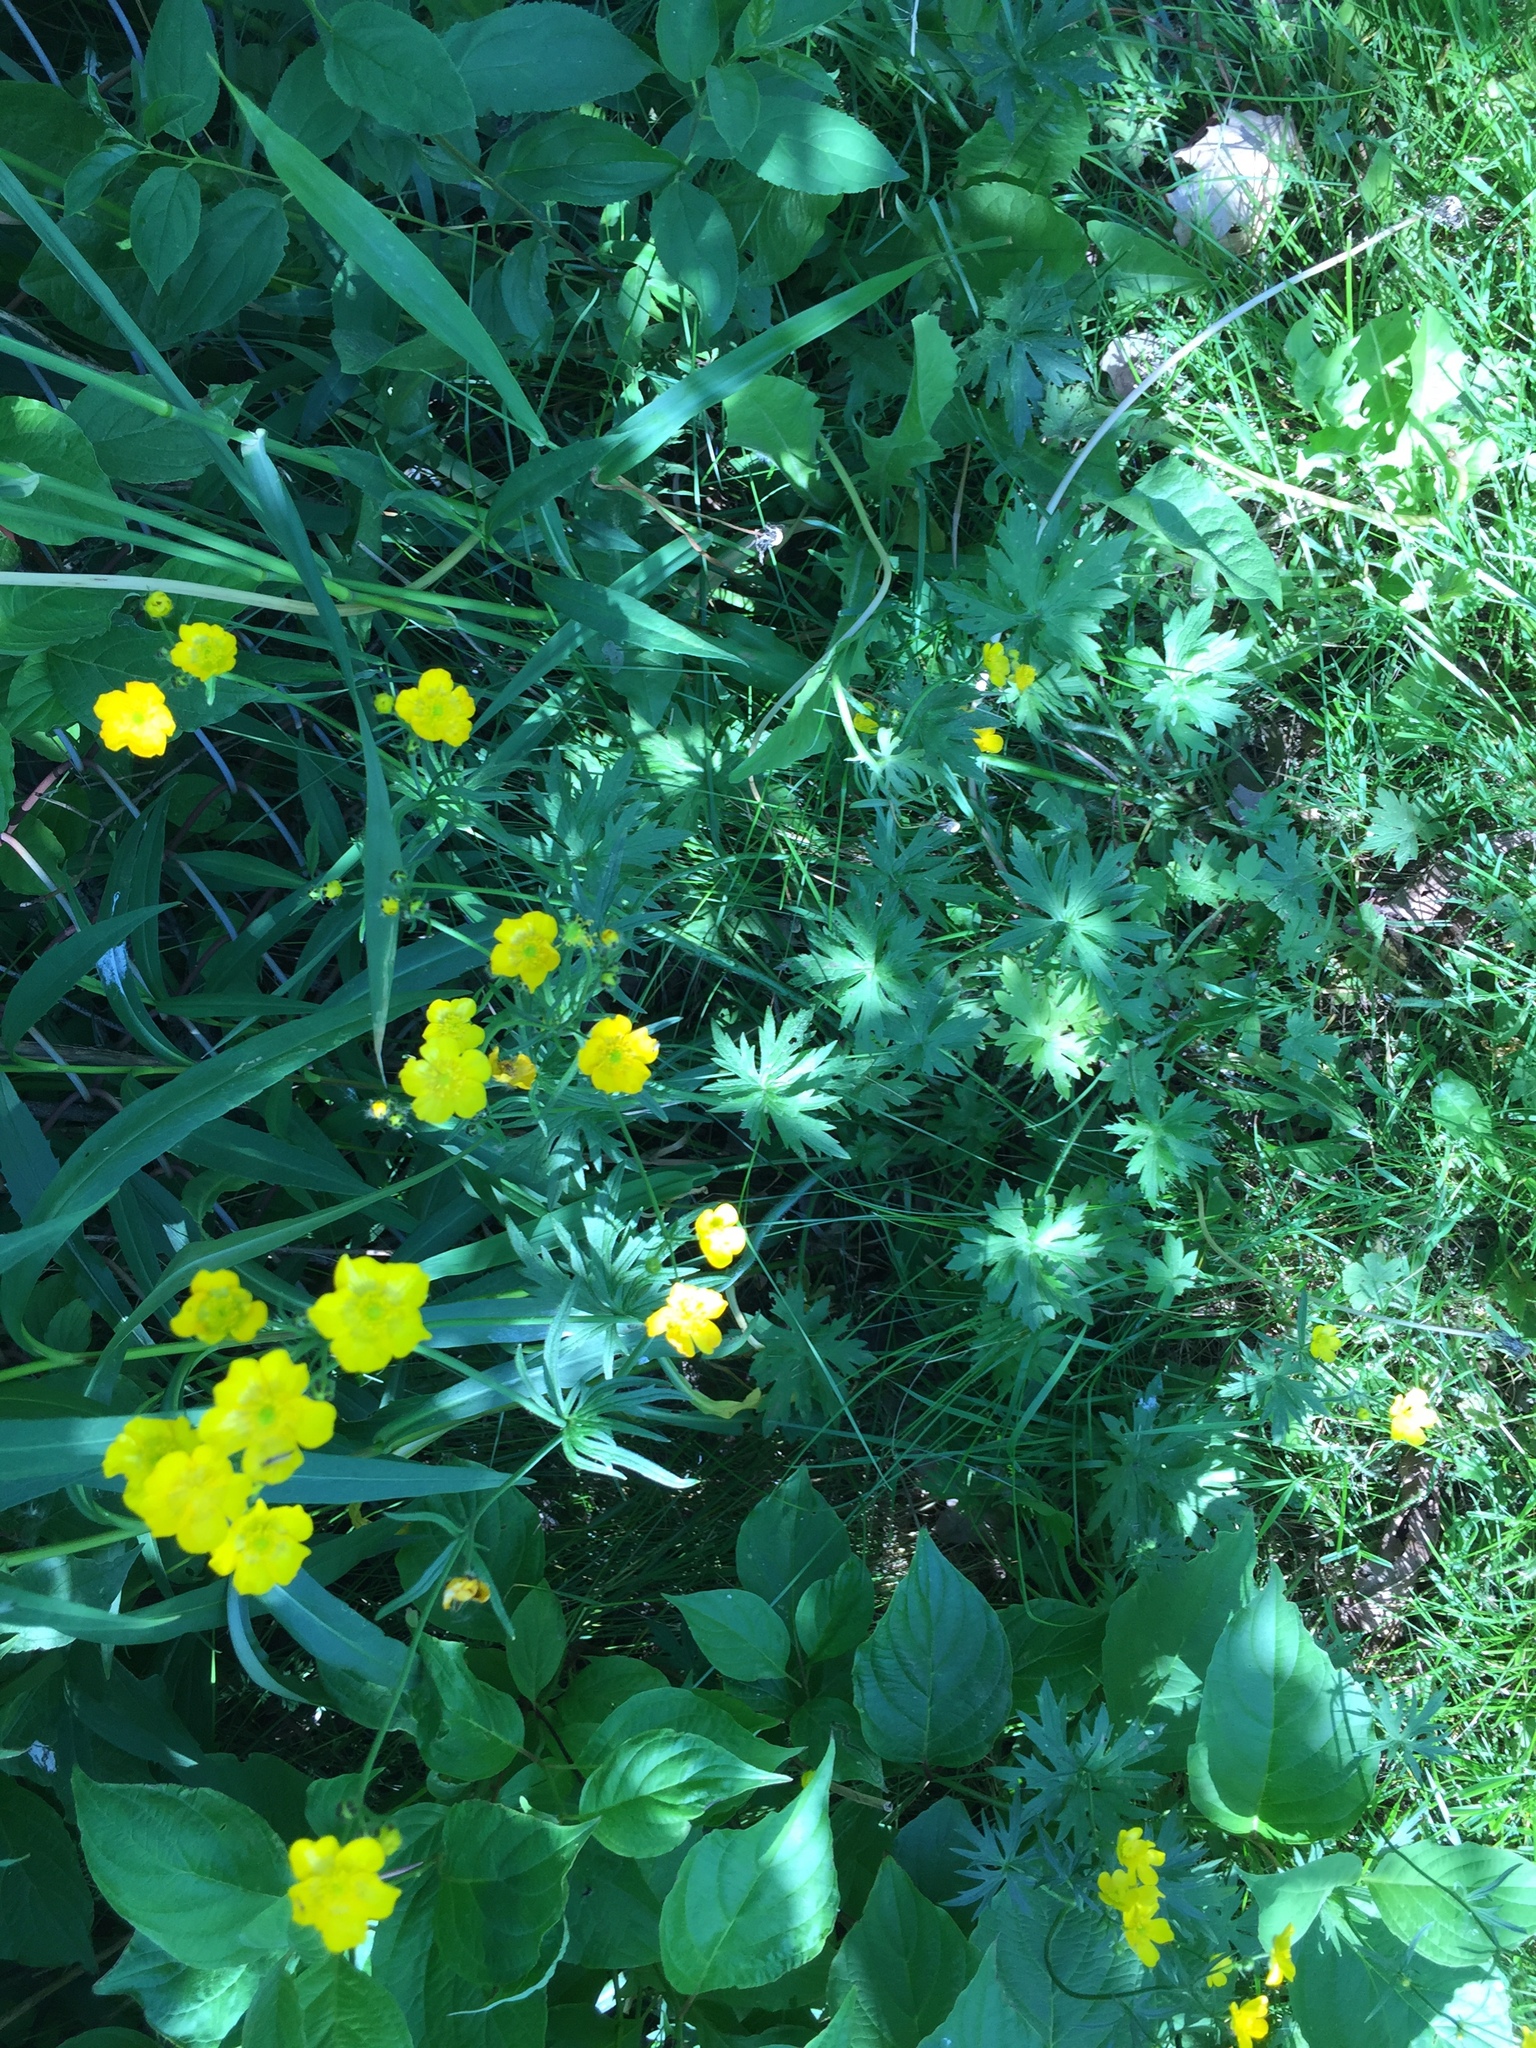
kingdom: Plantae
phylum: Tracheophyta
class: Magnoliopsida
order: Ranunculales
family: Ranunculaceae
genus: Ranunculus
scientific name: Ranunculus acris
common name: Meadow buttercup
